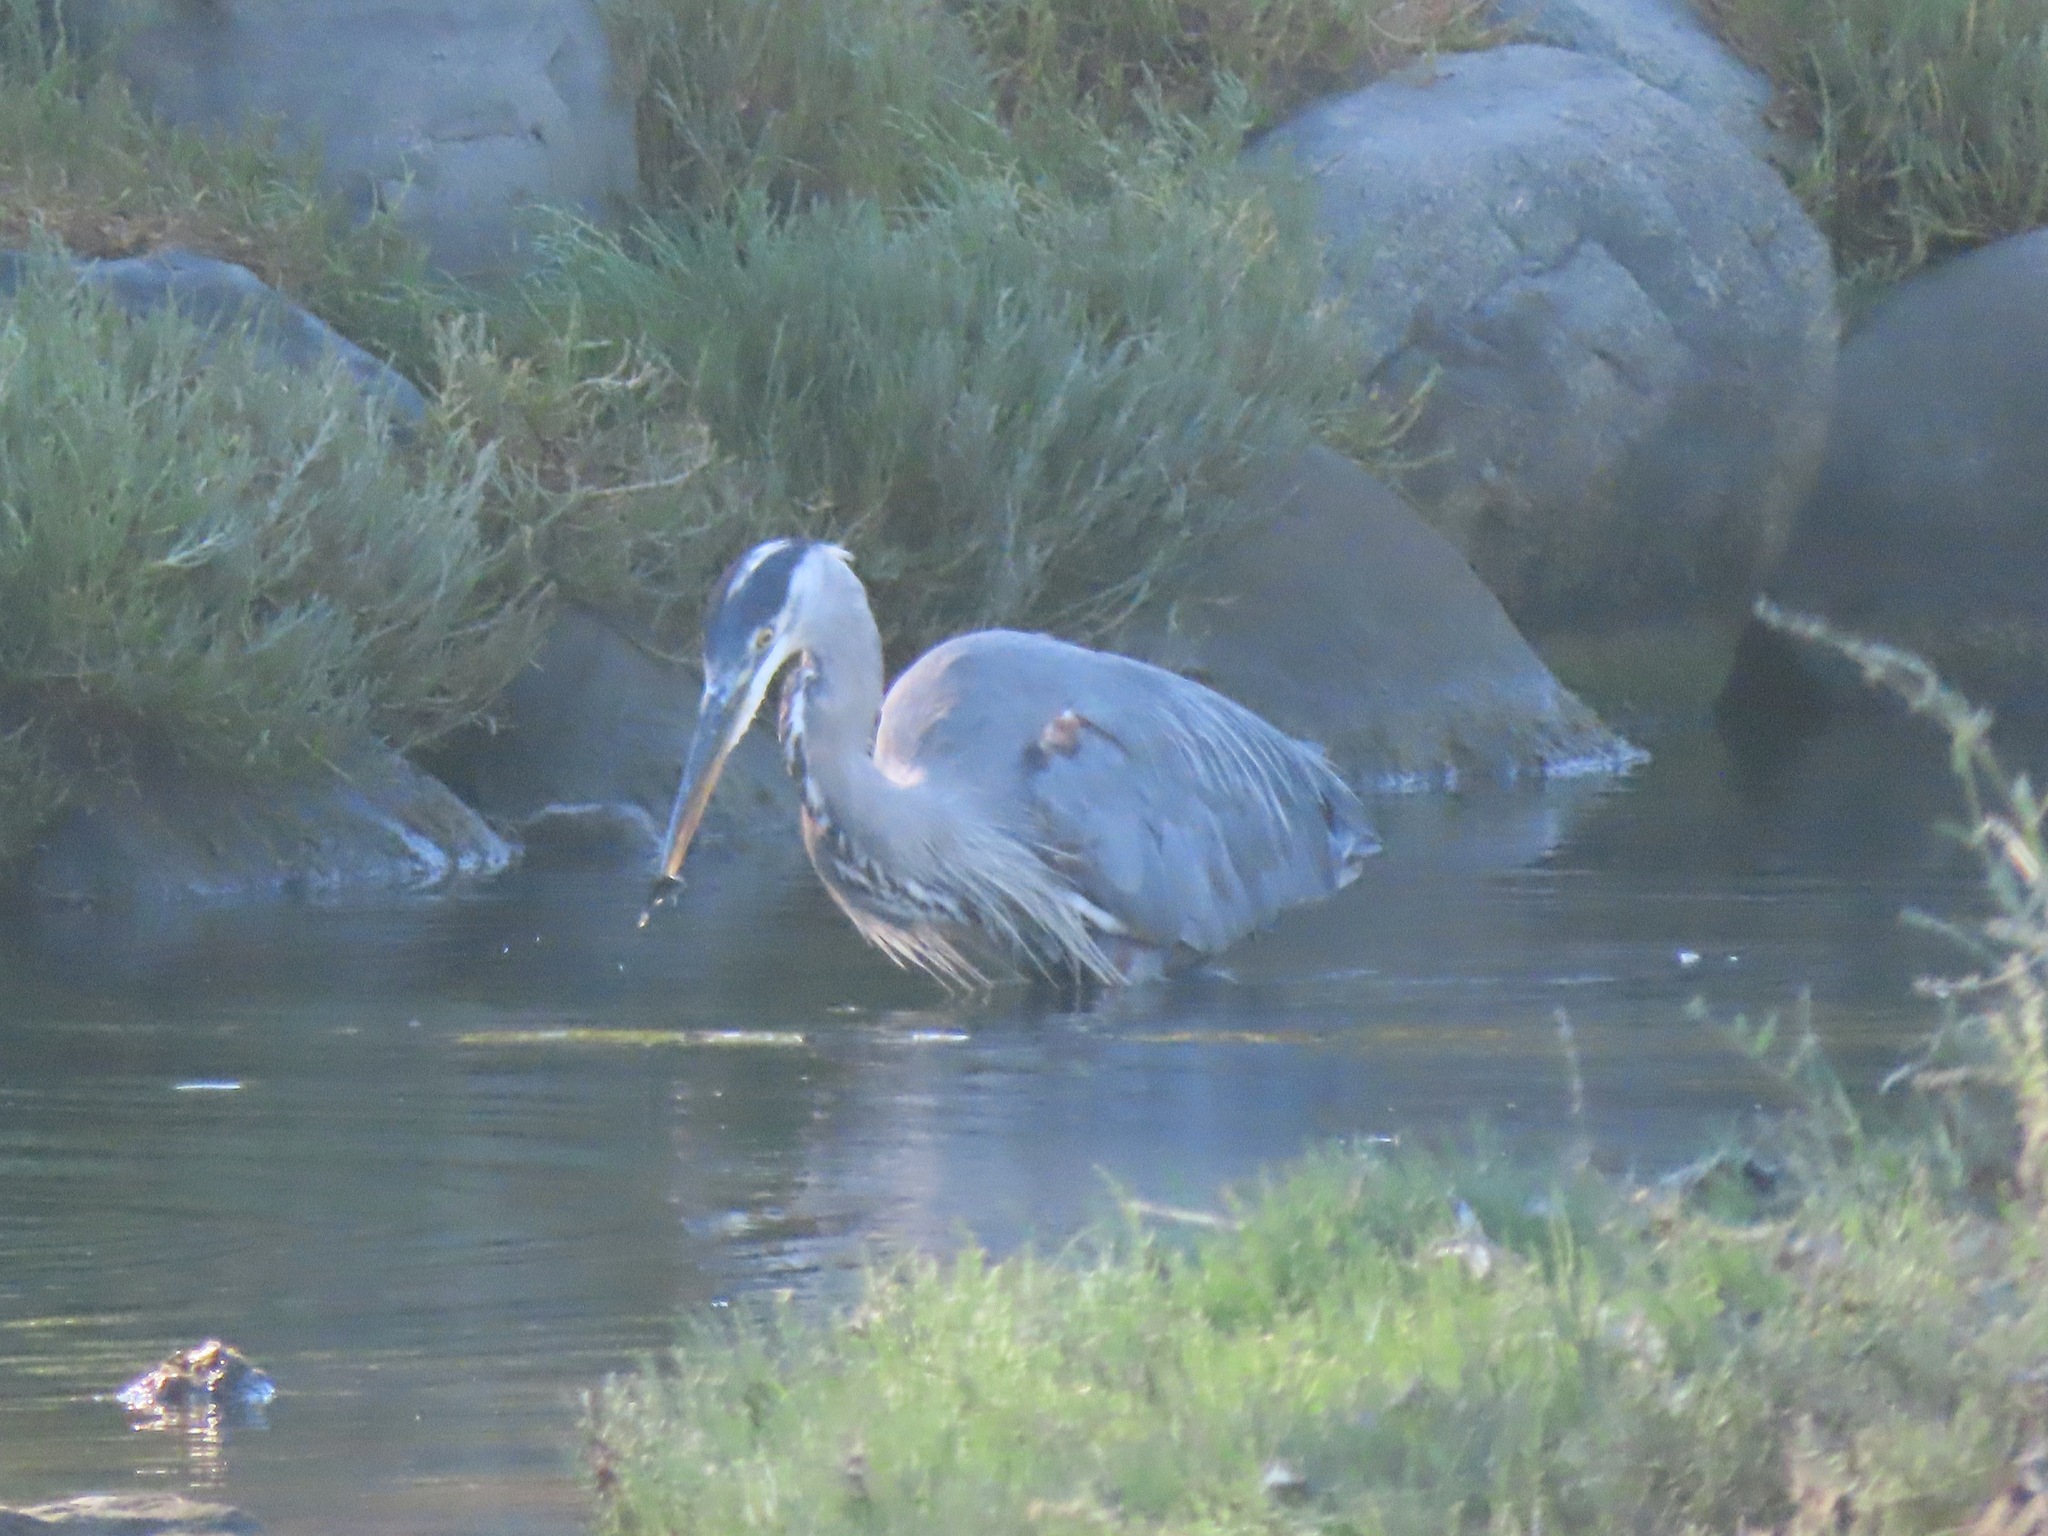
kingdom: Animalia
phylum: Chordata
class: Aves
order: Pelecaniformes
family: Ardeidae
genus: Ardea
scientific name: Ardea herodias
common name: Great blue heron
